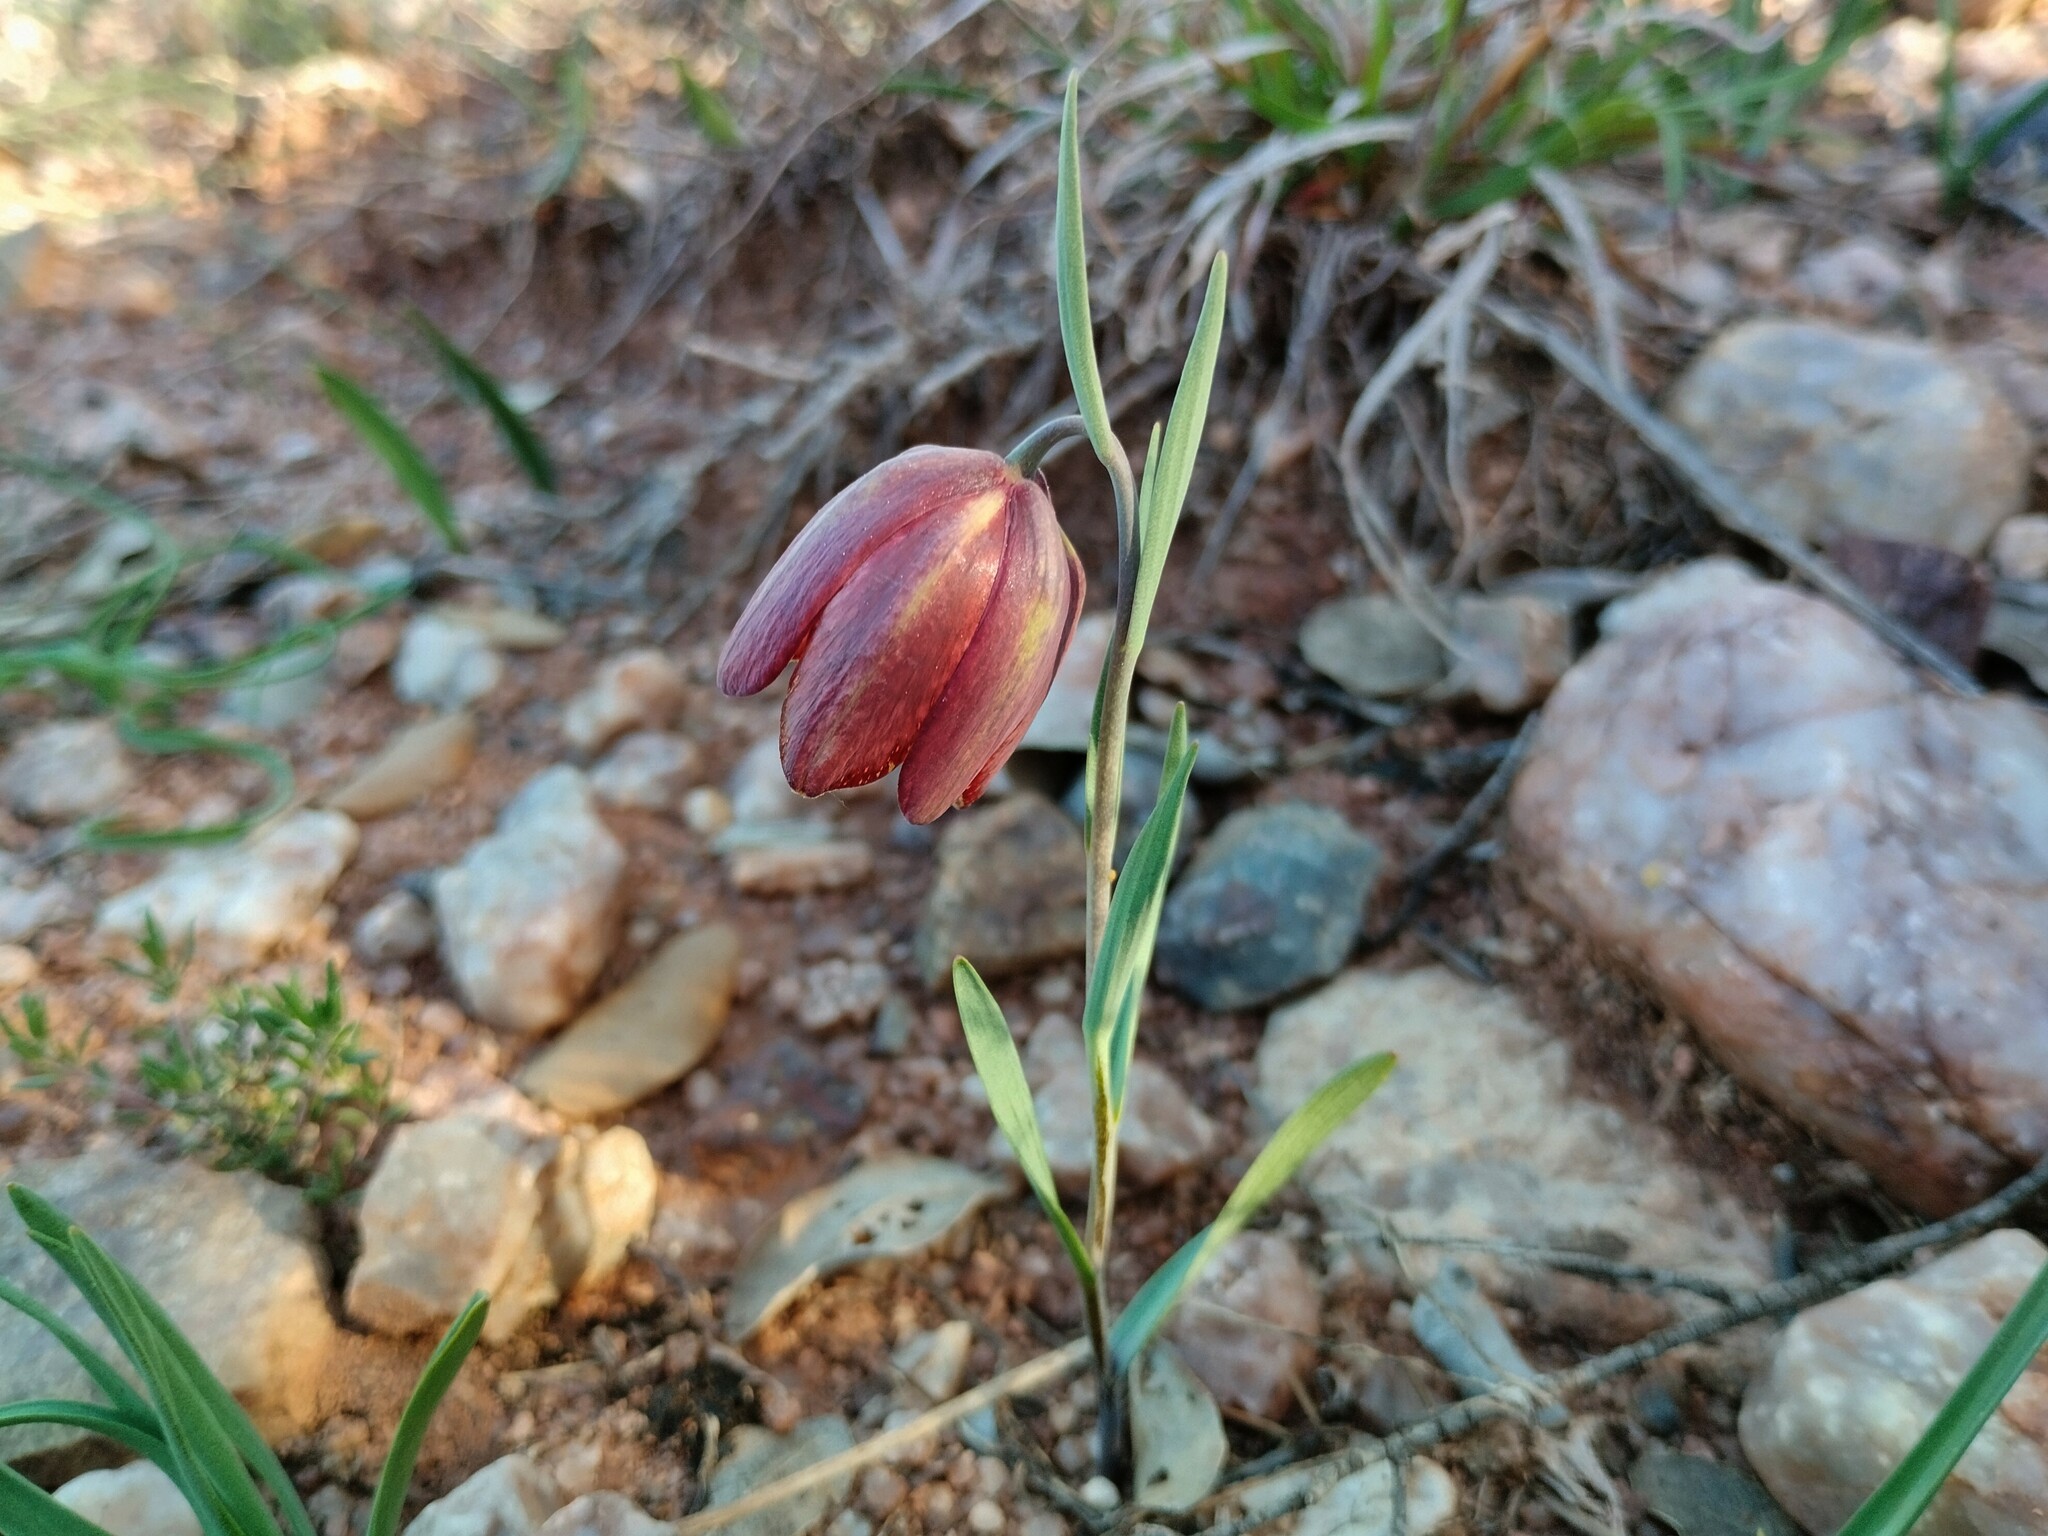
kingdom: Plantae
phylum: Tracheophyta
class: Liliopsida
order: Liliales
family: Liliaceae
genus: Fritillaria
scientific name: Fritillaria lusitanica
